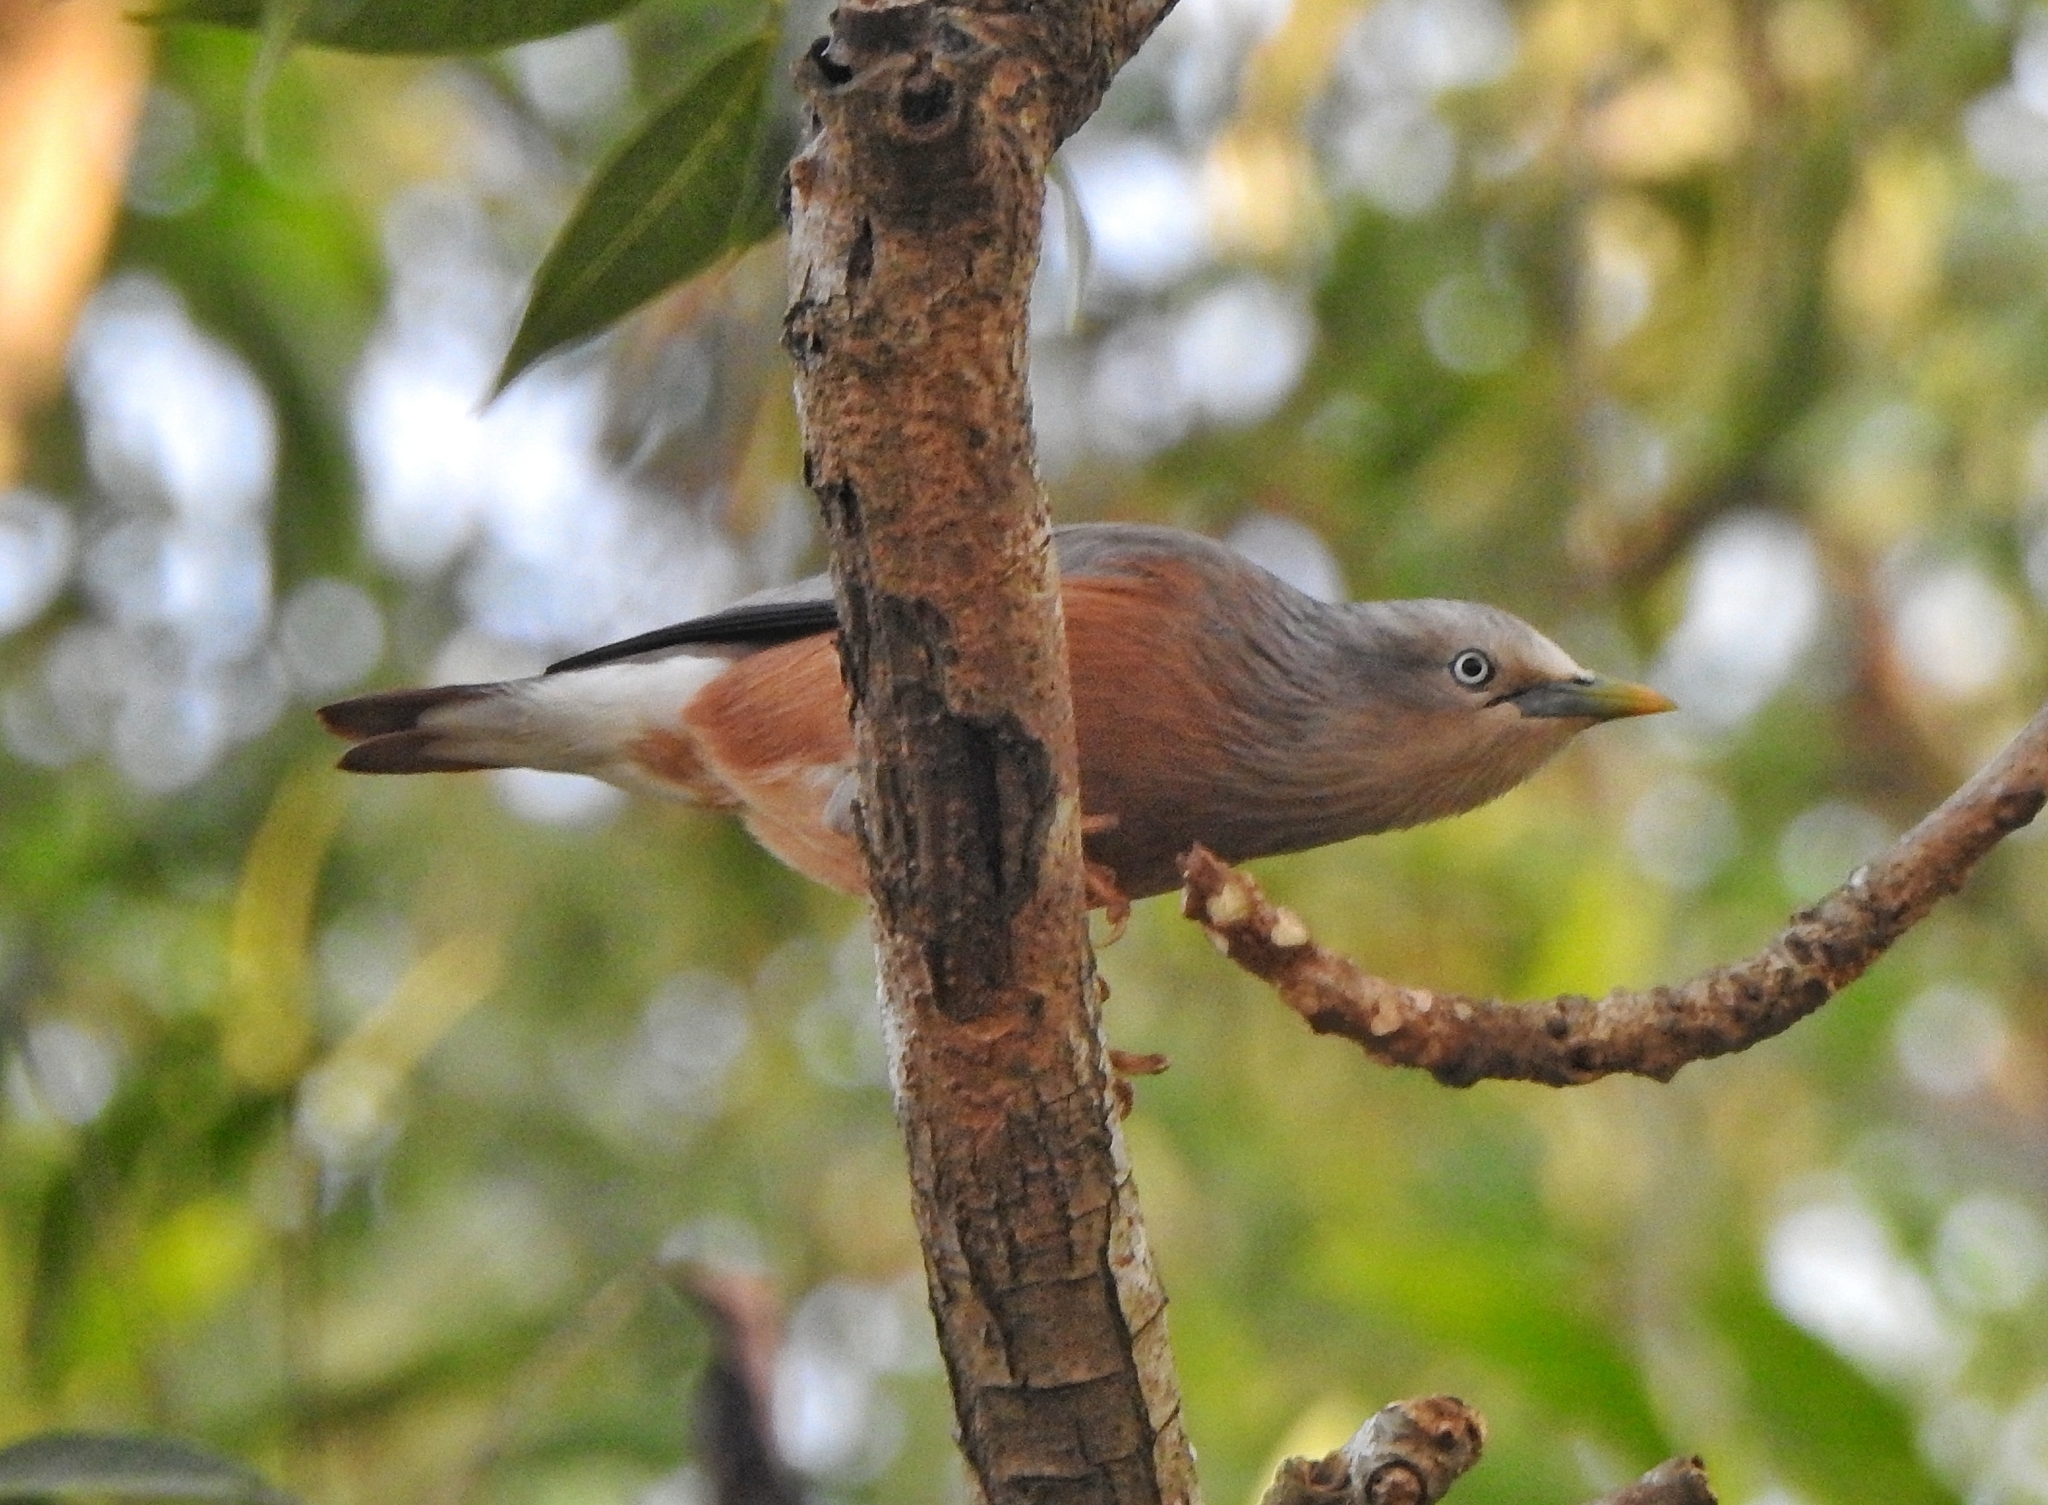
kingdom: Animalia
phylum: Chordata
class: Aves
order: Passeriformes
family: Sturnidae
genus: Sturnia
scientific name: Sturnia malabarica
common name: Chestnut-tailed starling
